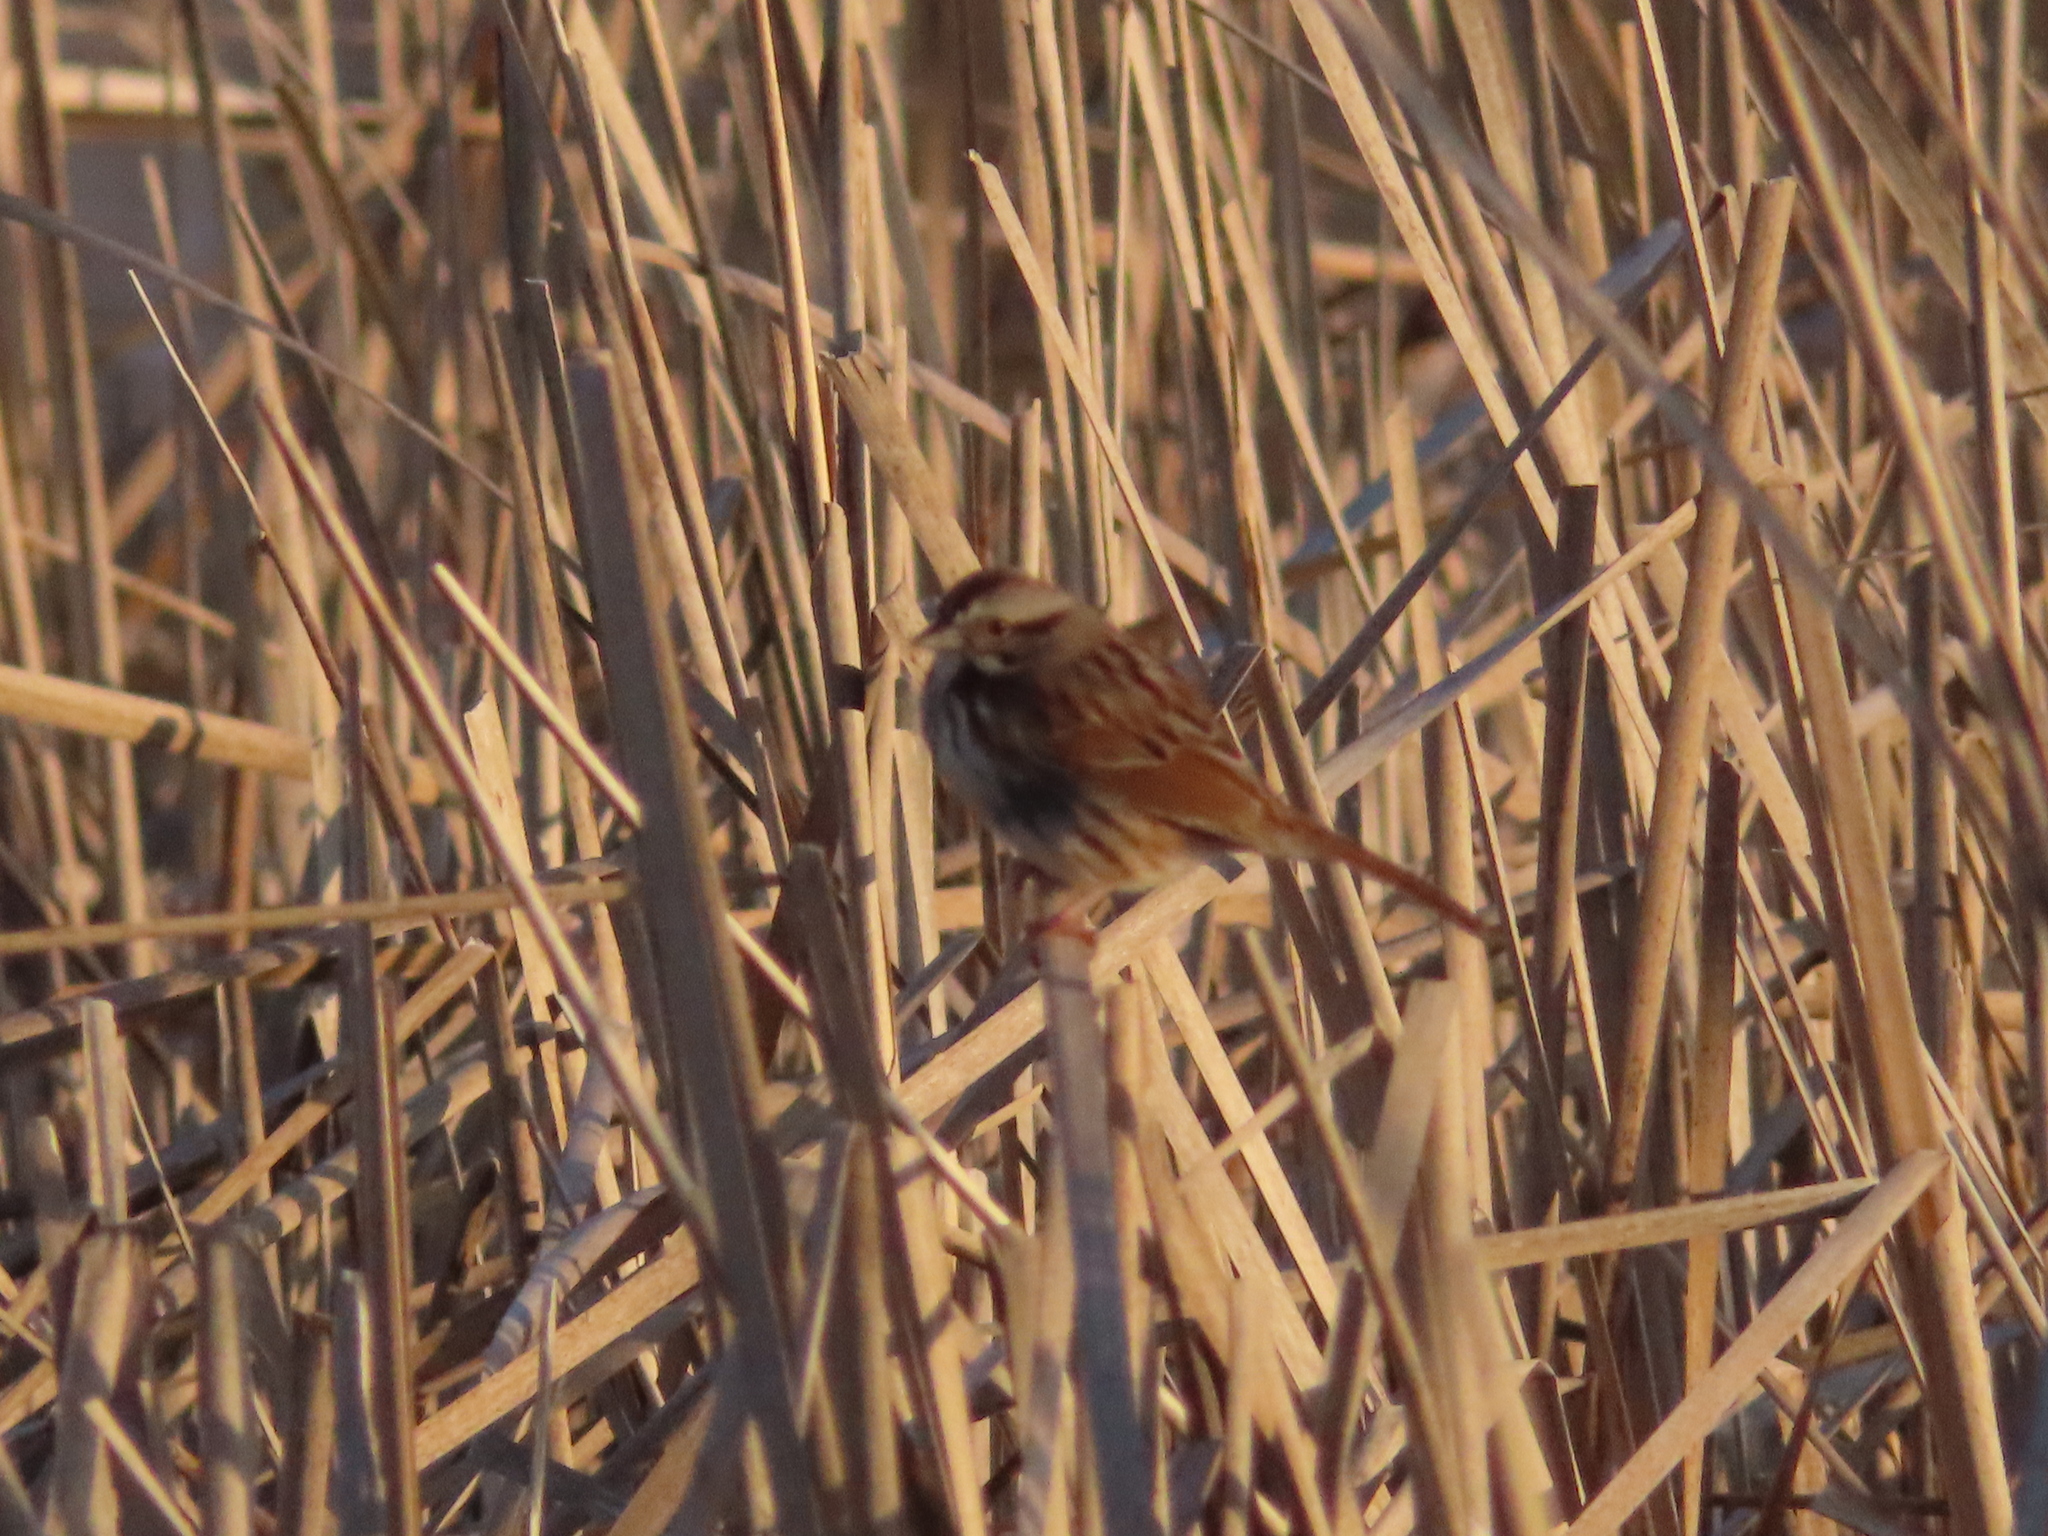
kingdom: Animalia
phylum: Chordata
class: Aves
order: Passeriformes
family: Passerellidae
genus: Melospiza
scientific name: Melospiza georgiana
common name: Swamp sparrow
